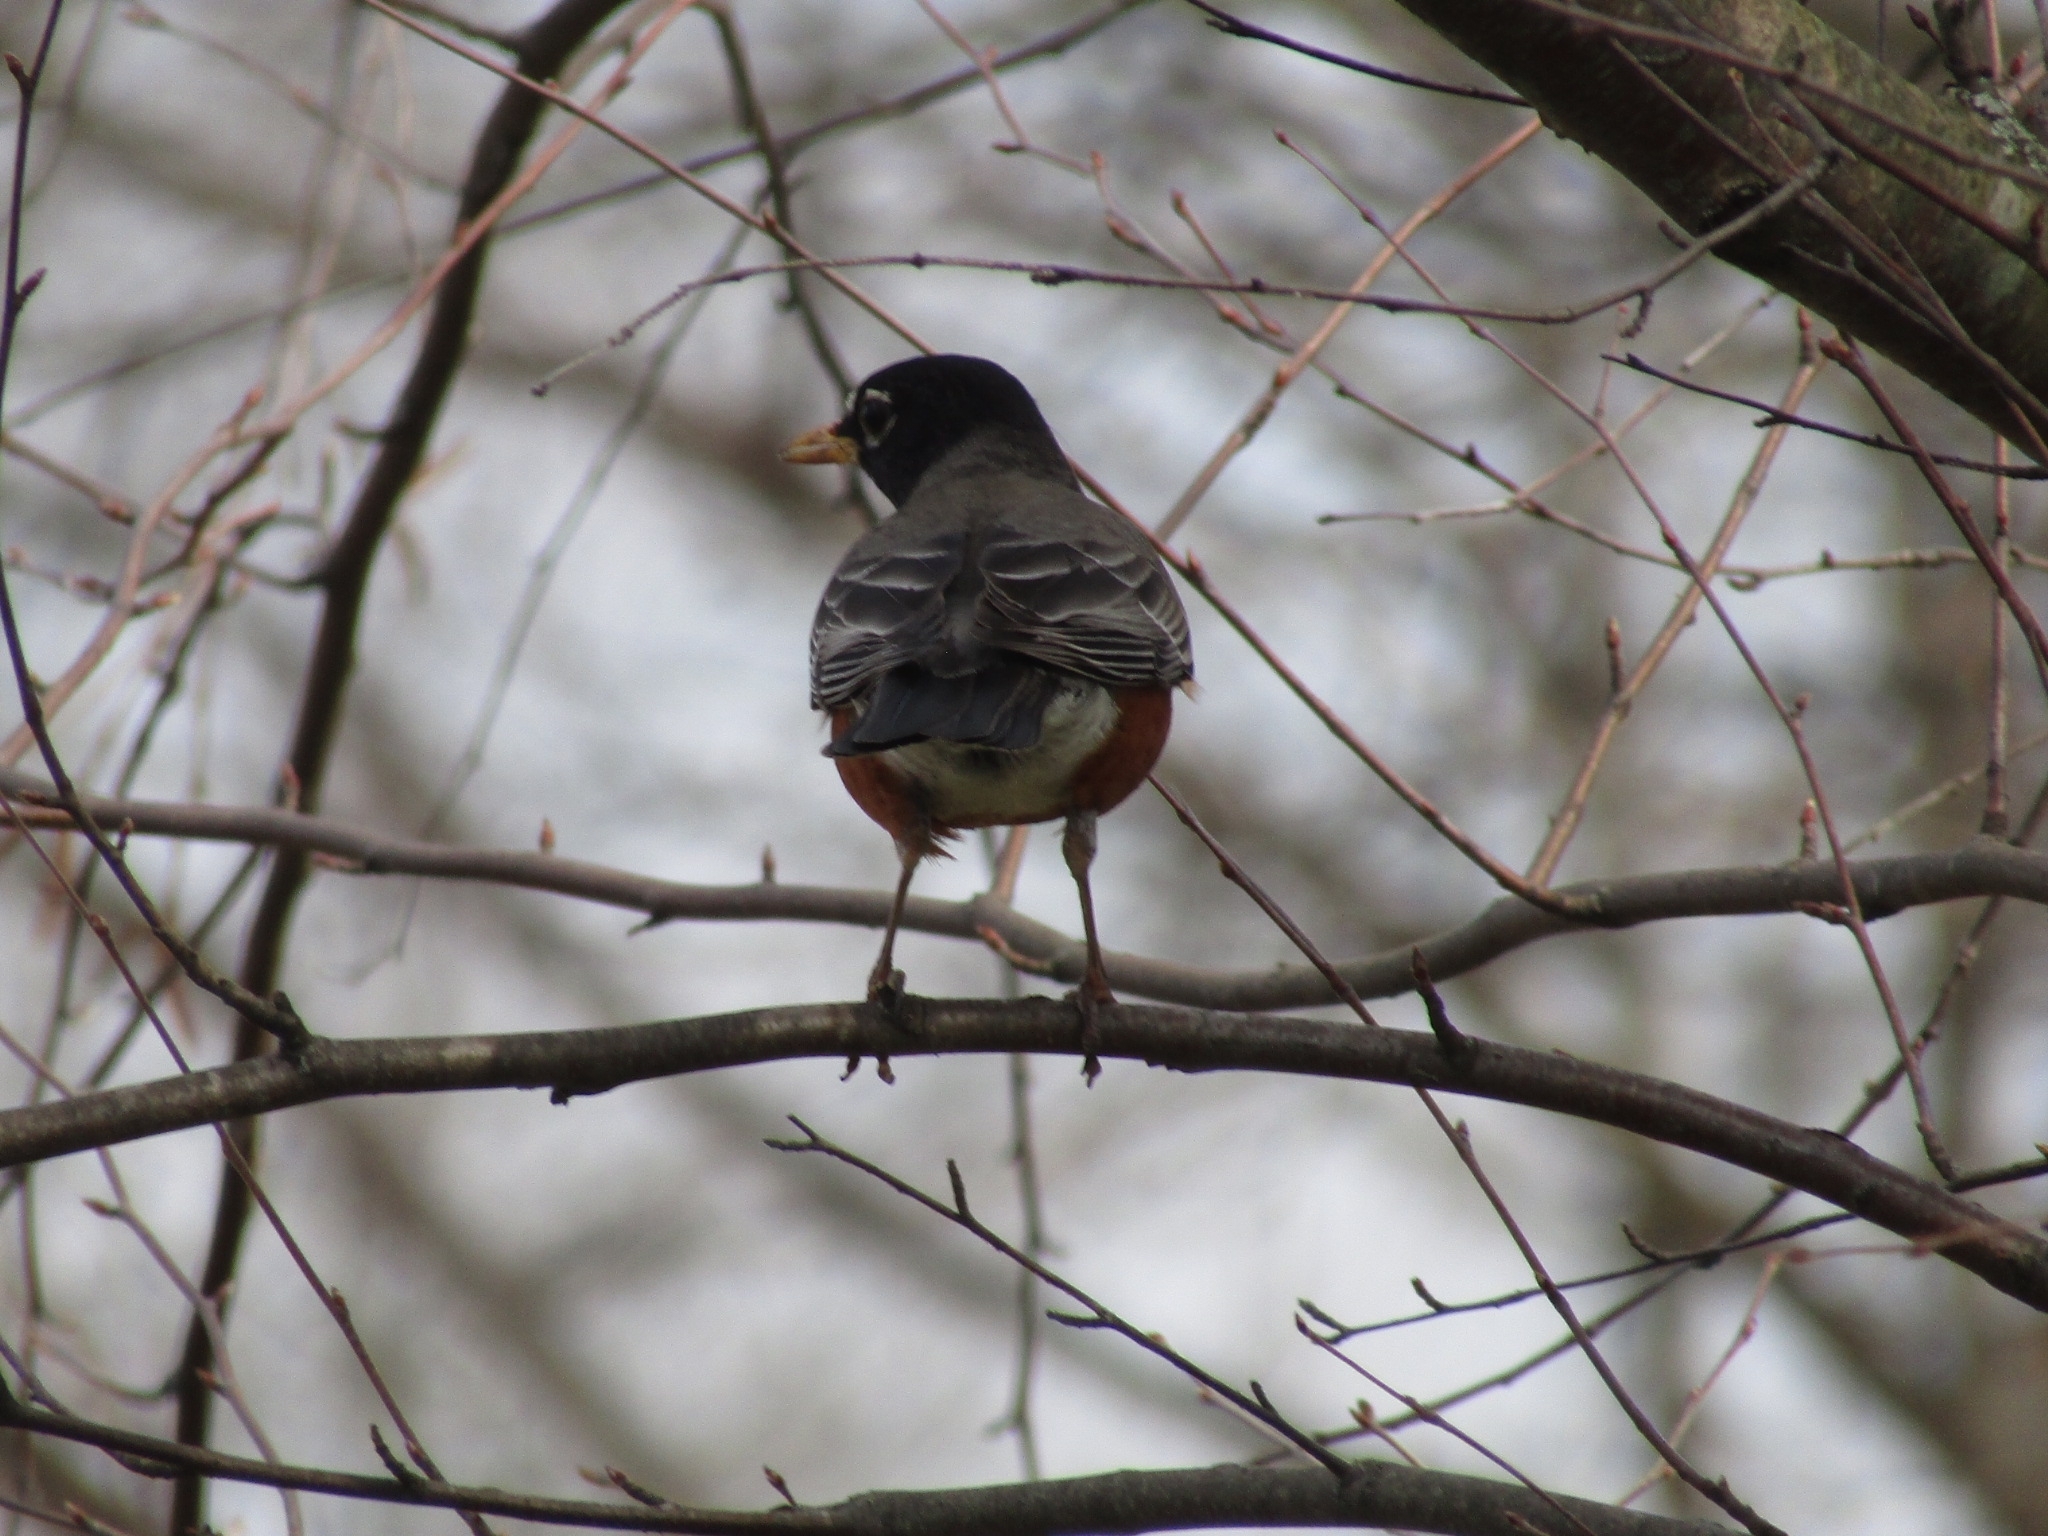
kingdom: Animalia
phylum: Chordata
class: Aves
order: Passeriformes
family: Turdidae
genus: Turdus
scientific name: Turdus migratorius
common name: American robin
